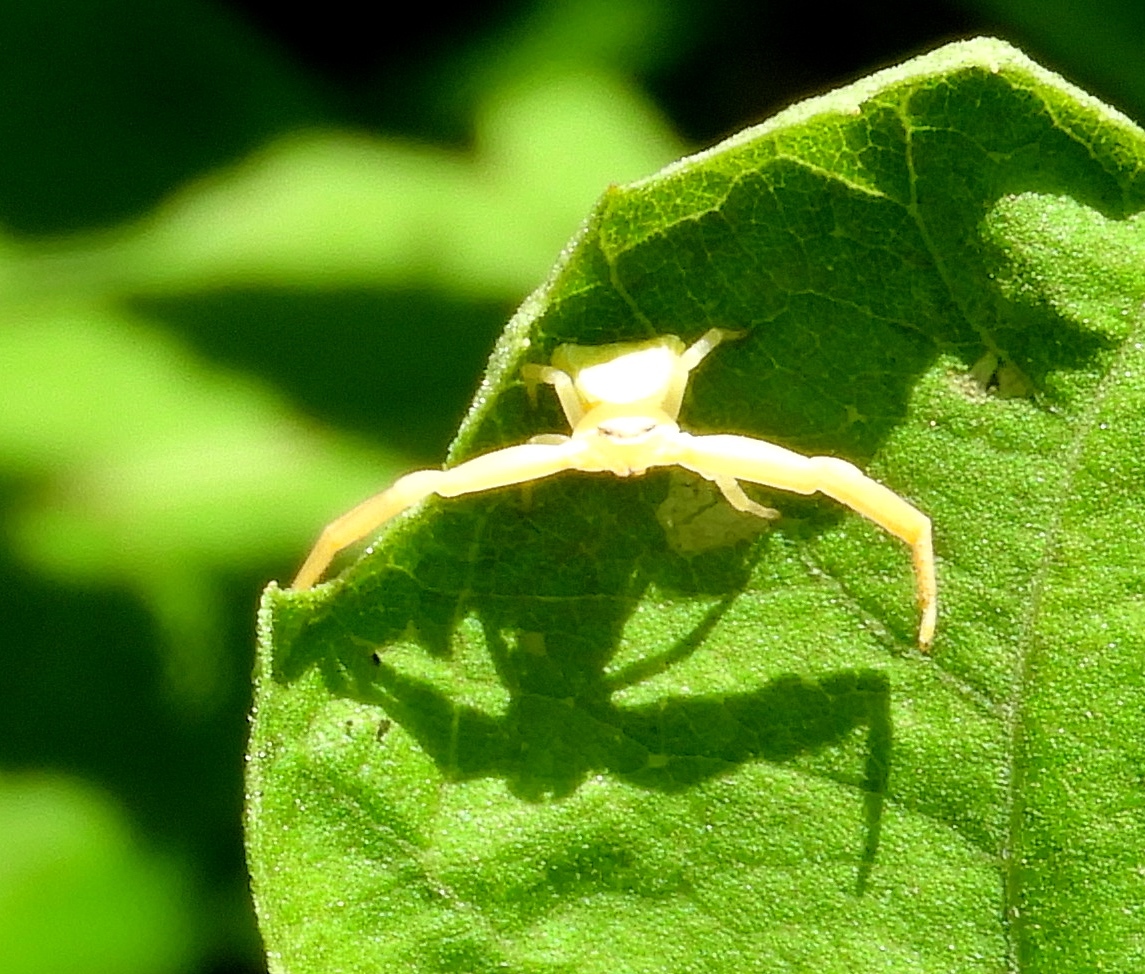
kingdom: Animalia
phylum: Arthropoda
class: Arachnida
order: Araneae
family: Thomisidae
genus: Misumenoides
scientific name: Misumenoides
